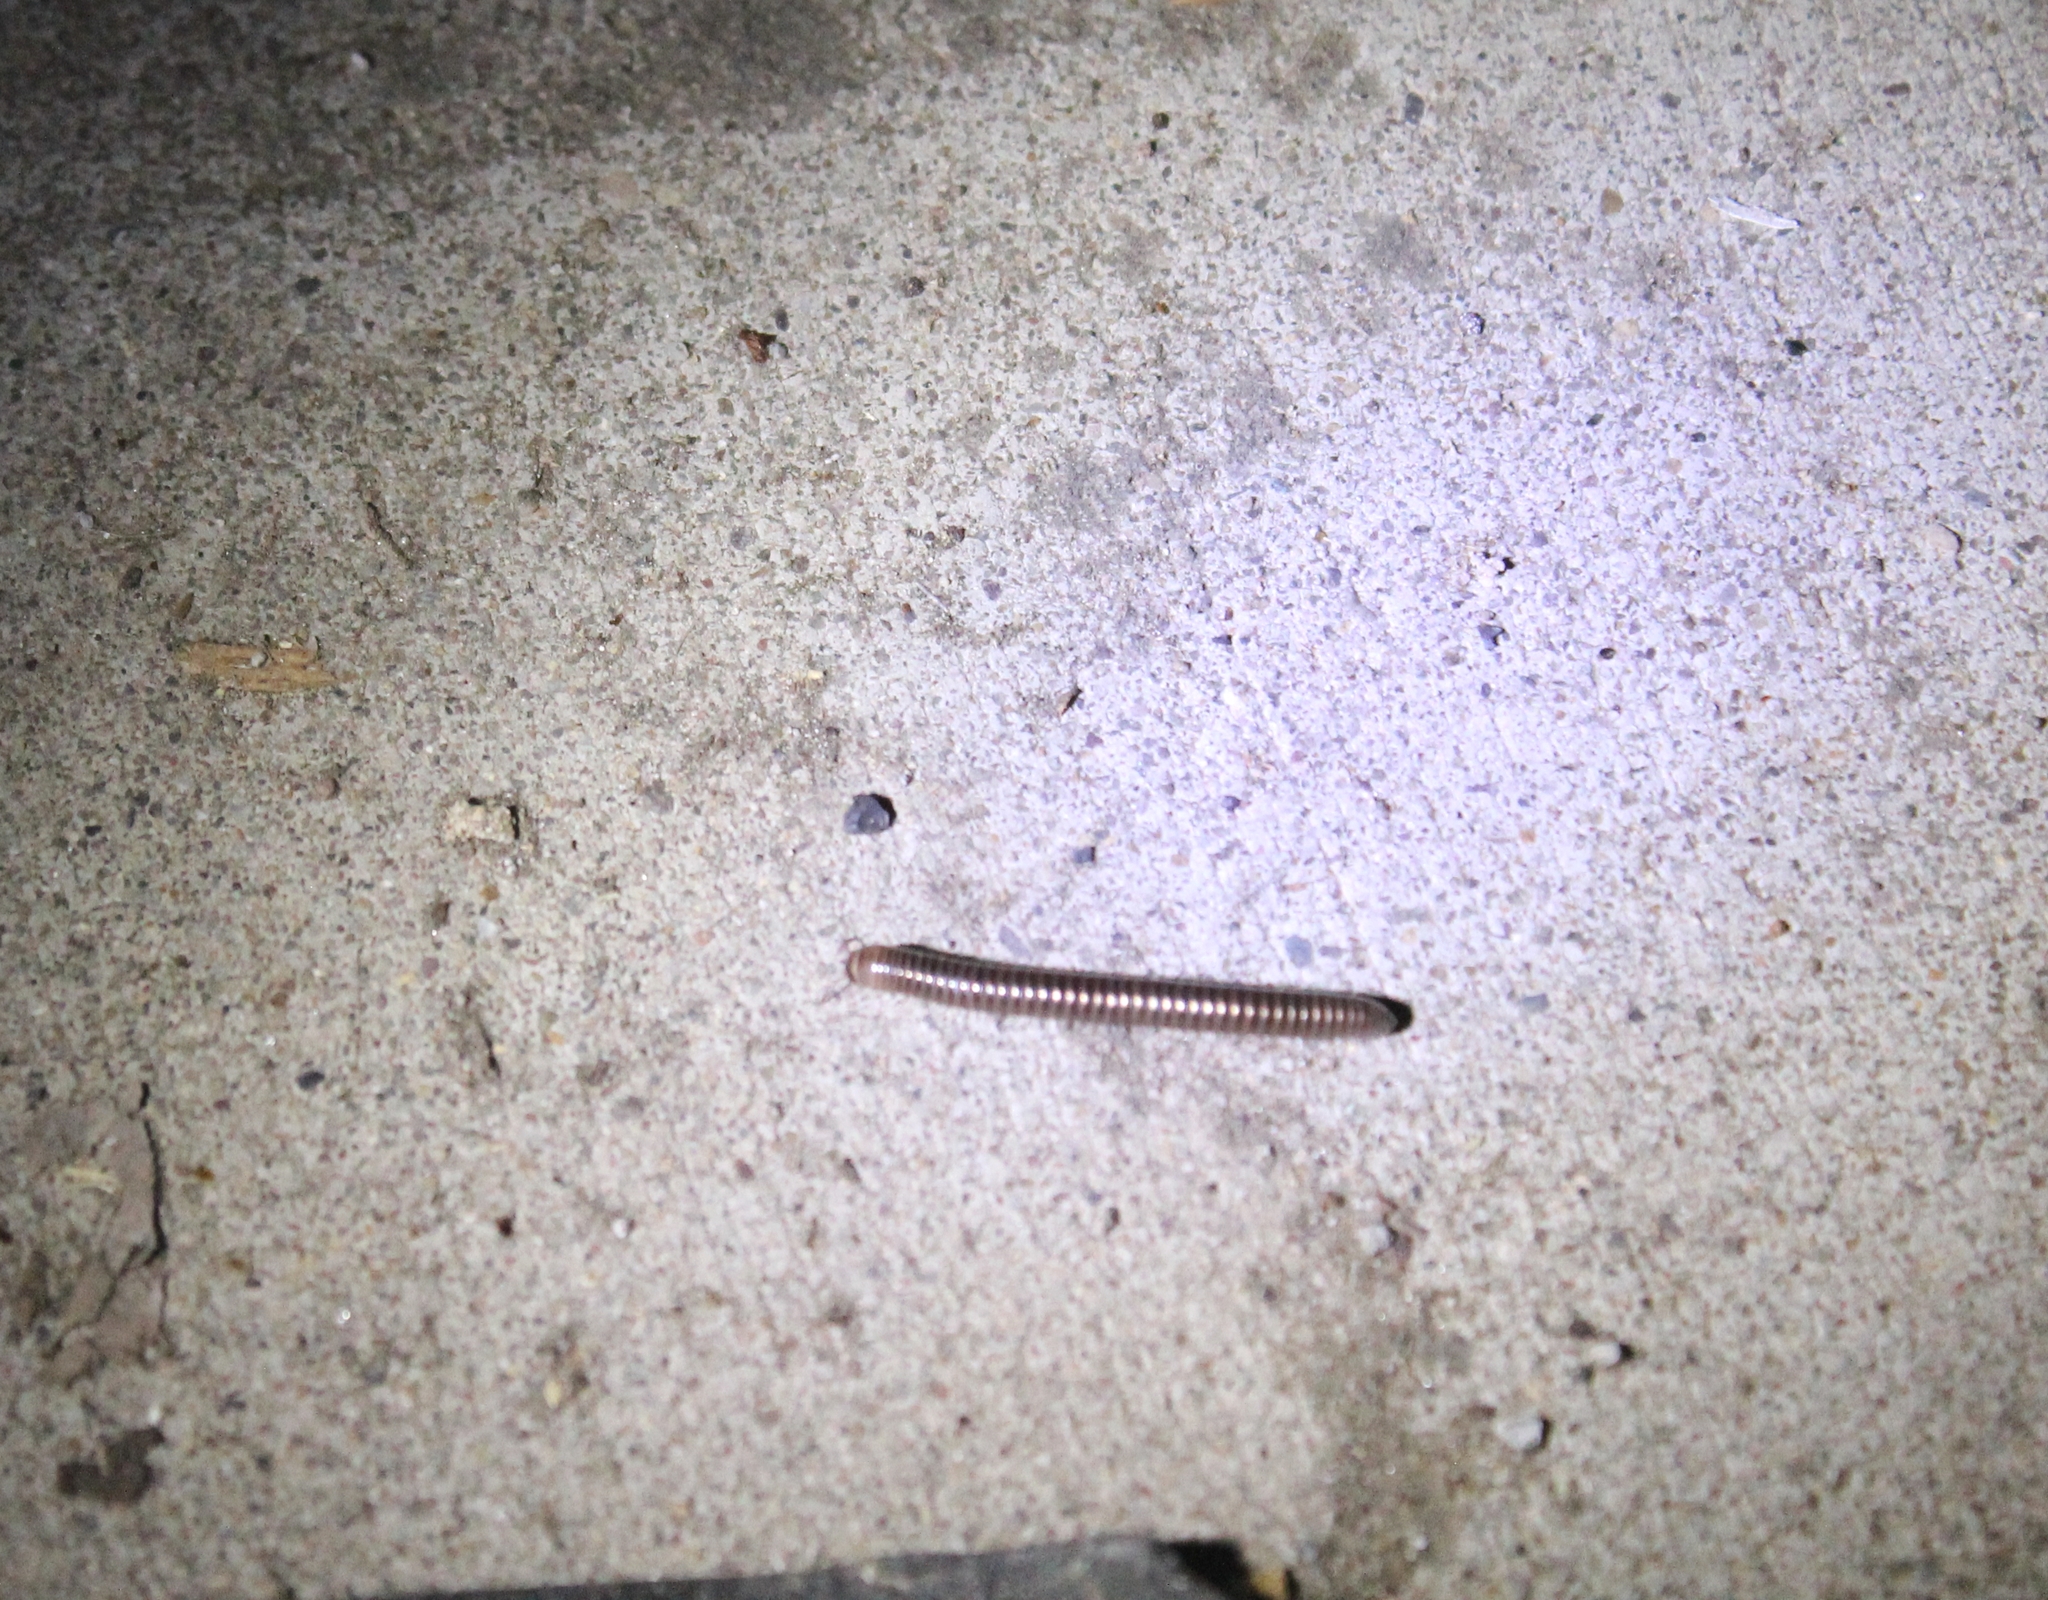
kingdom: Animalia
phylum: Arthropoda
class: Diplopoda
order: Julida
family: Julidae
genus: Cylindroiulus
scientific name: Cylindroiulus caeruleocinctus
